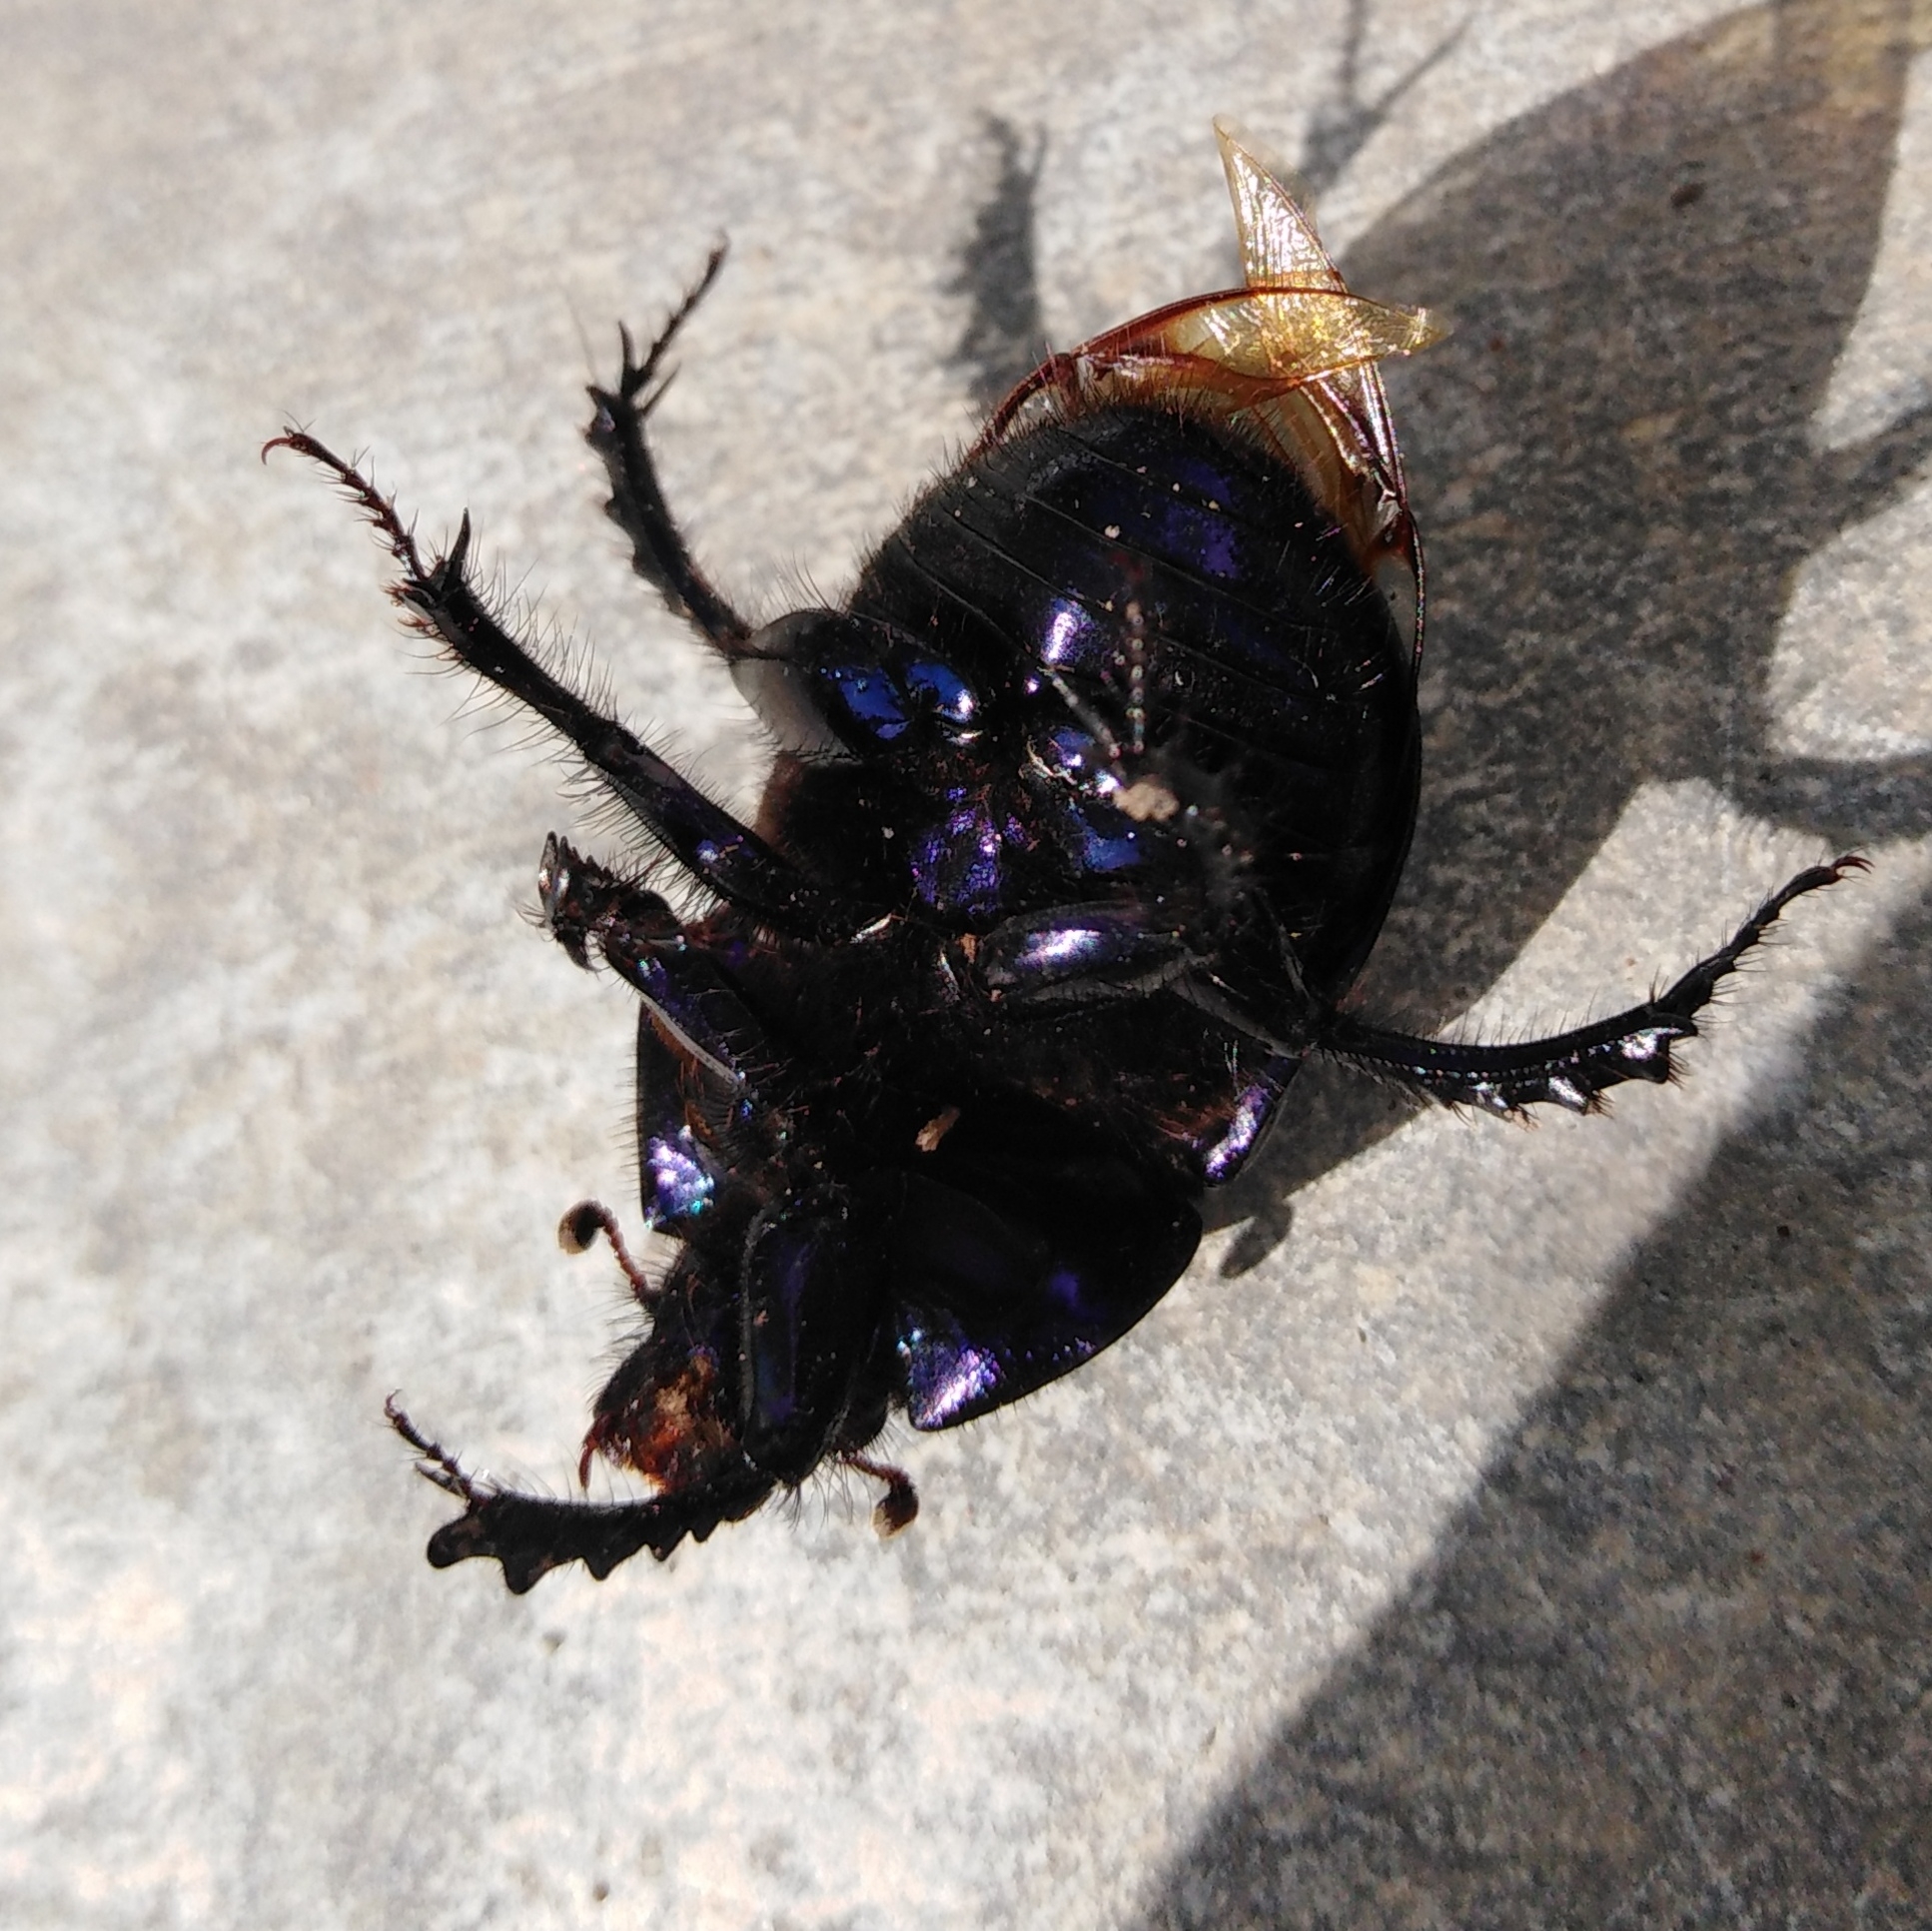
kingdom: Animalia
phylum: Arthropoda
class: Insecta
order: Coleoptera
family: Geotrupidae
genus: Anoplotrupes
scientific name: Anoplotrupes stercorosus
